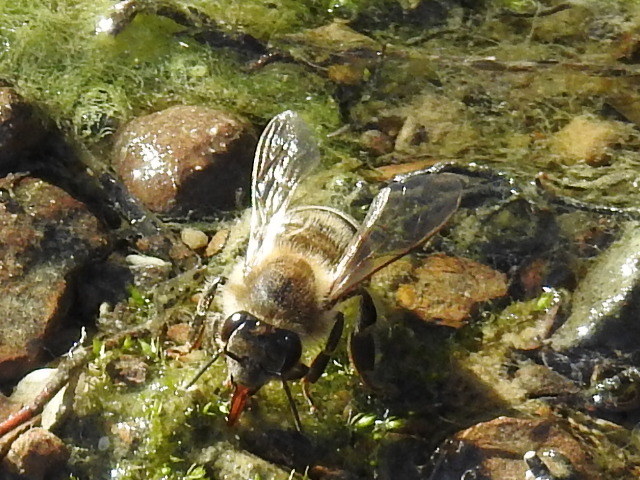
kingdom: Animalia
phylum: Arthropoda
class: Insecta
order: Hymenoptera
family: Apidae
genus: Apis
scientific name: Apis mellifera
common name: Honey bee
